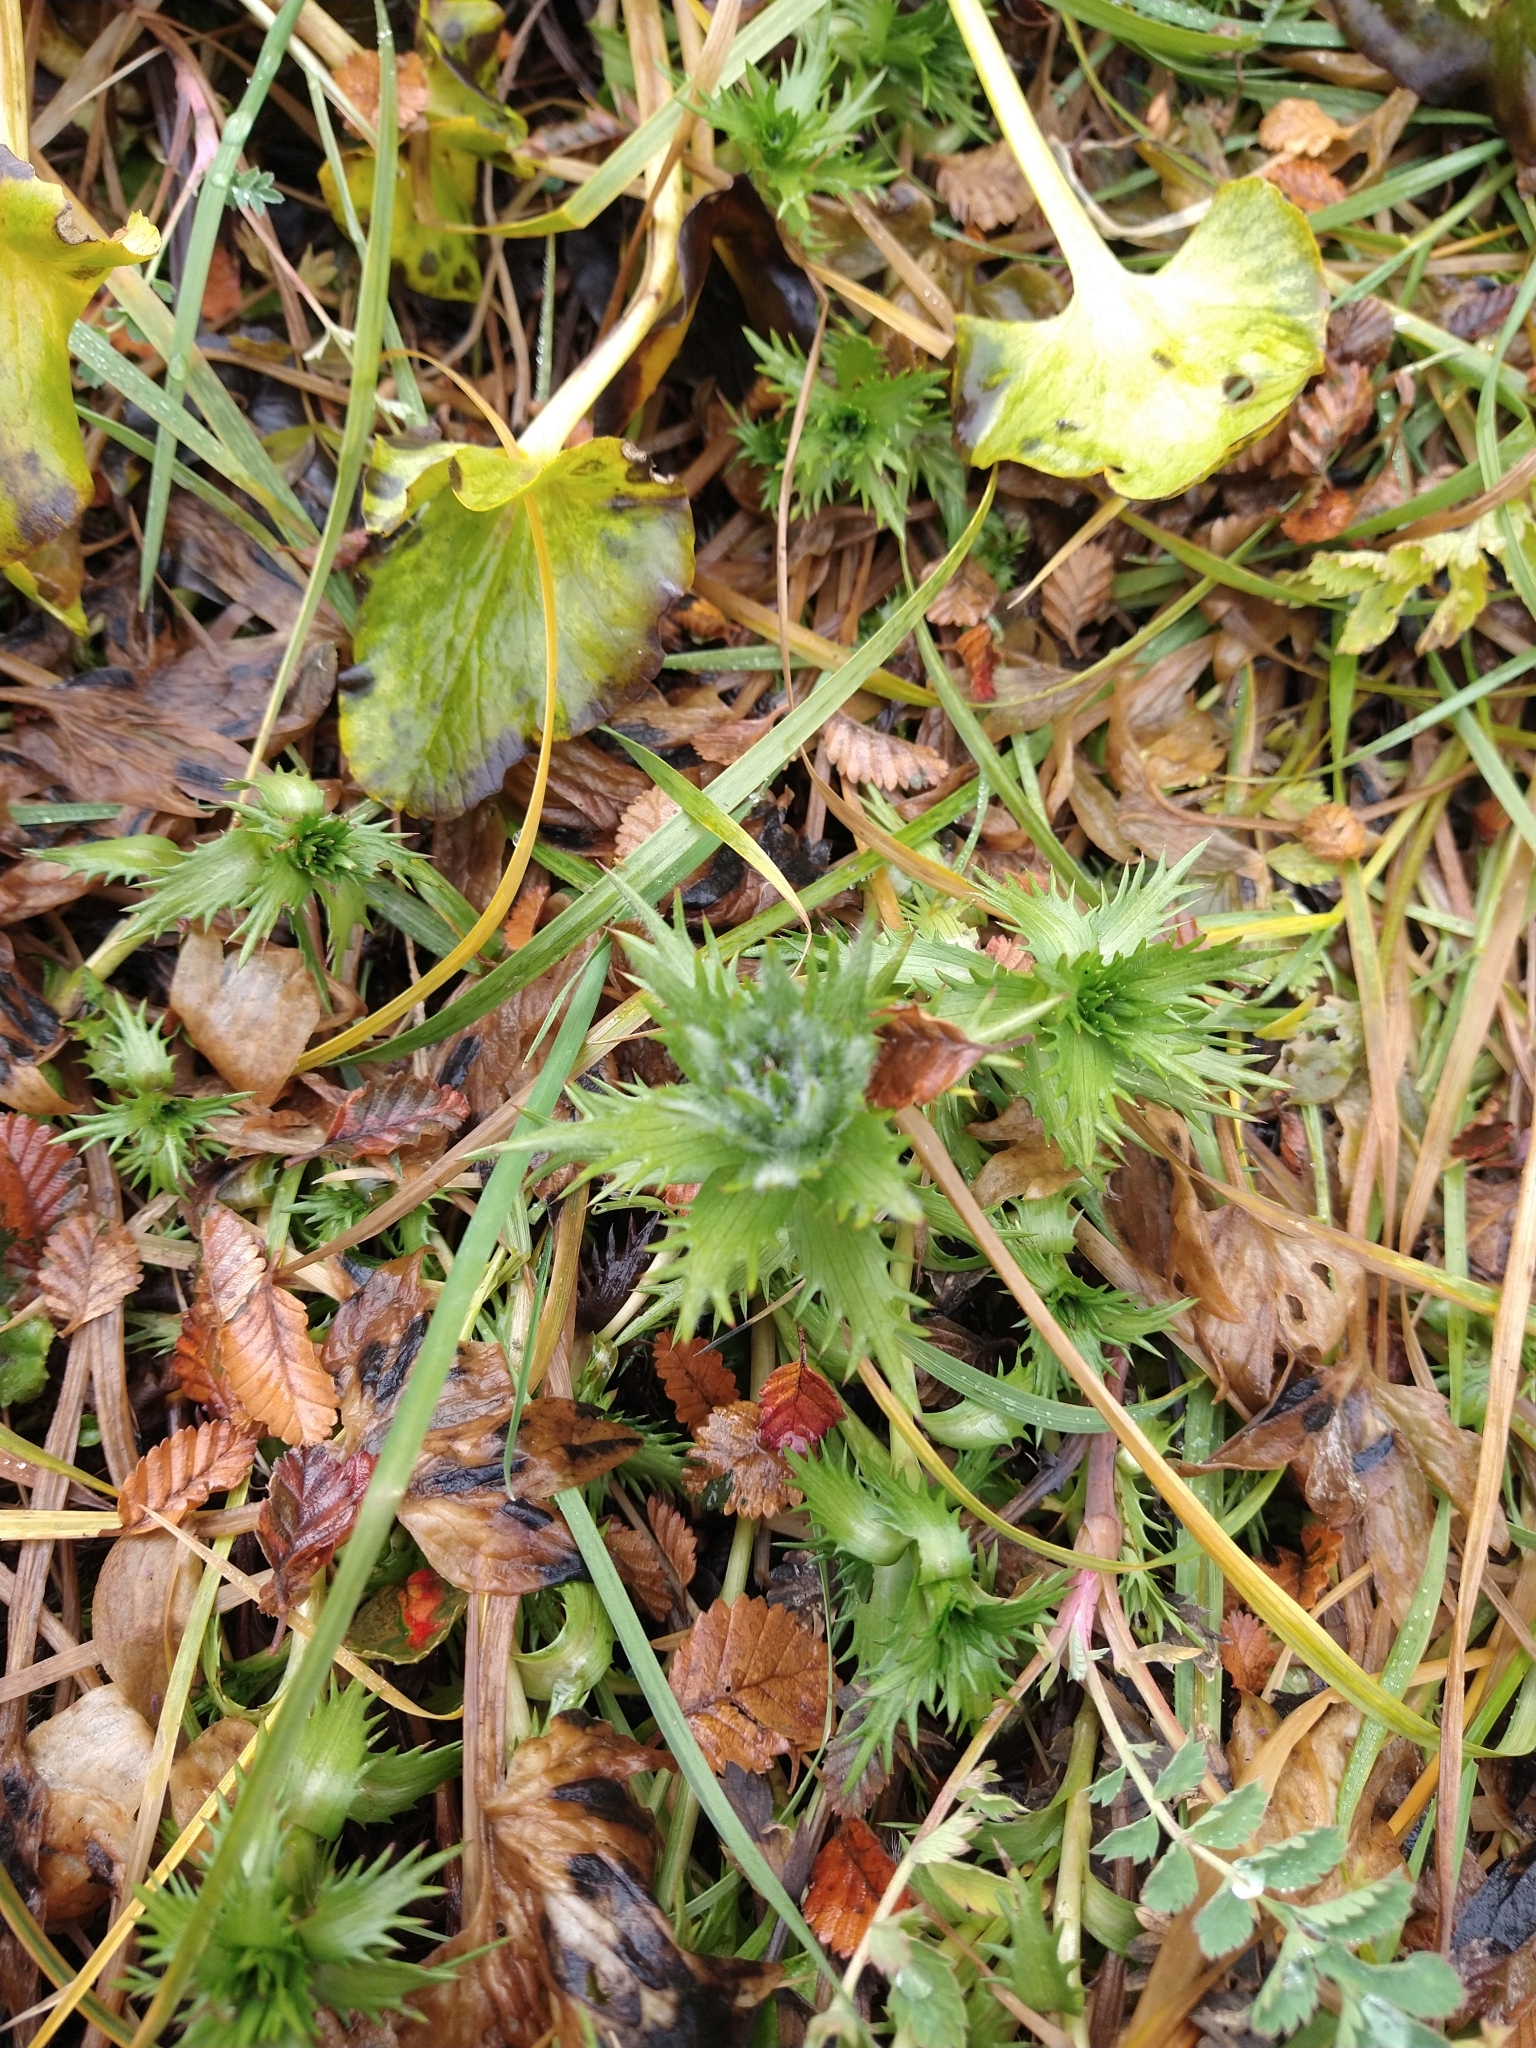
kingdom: Plantae
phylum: Tracheophyta
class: Magnoliopsida
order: Asterales
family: Asteraceae
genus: Nassauvia
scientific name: Nassauvia magellanica
